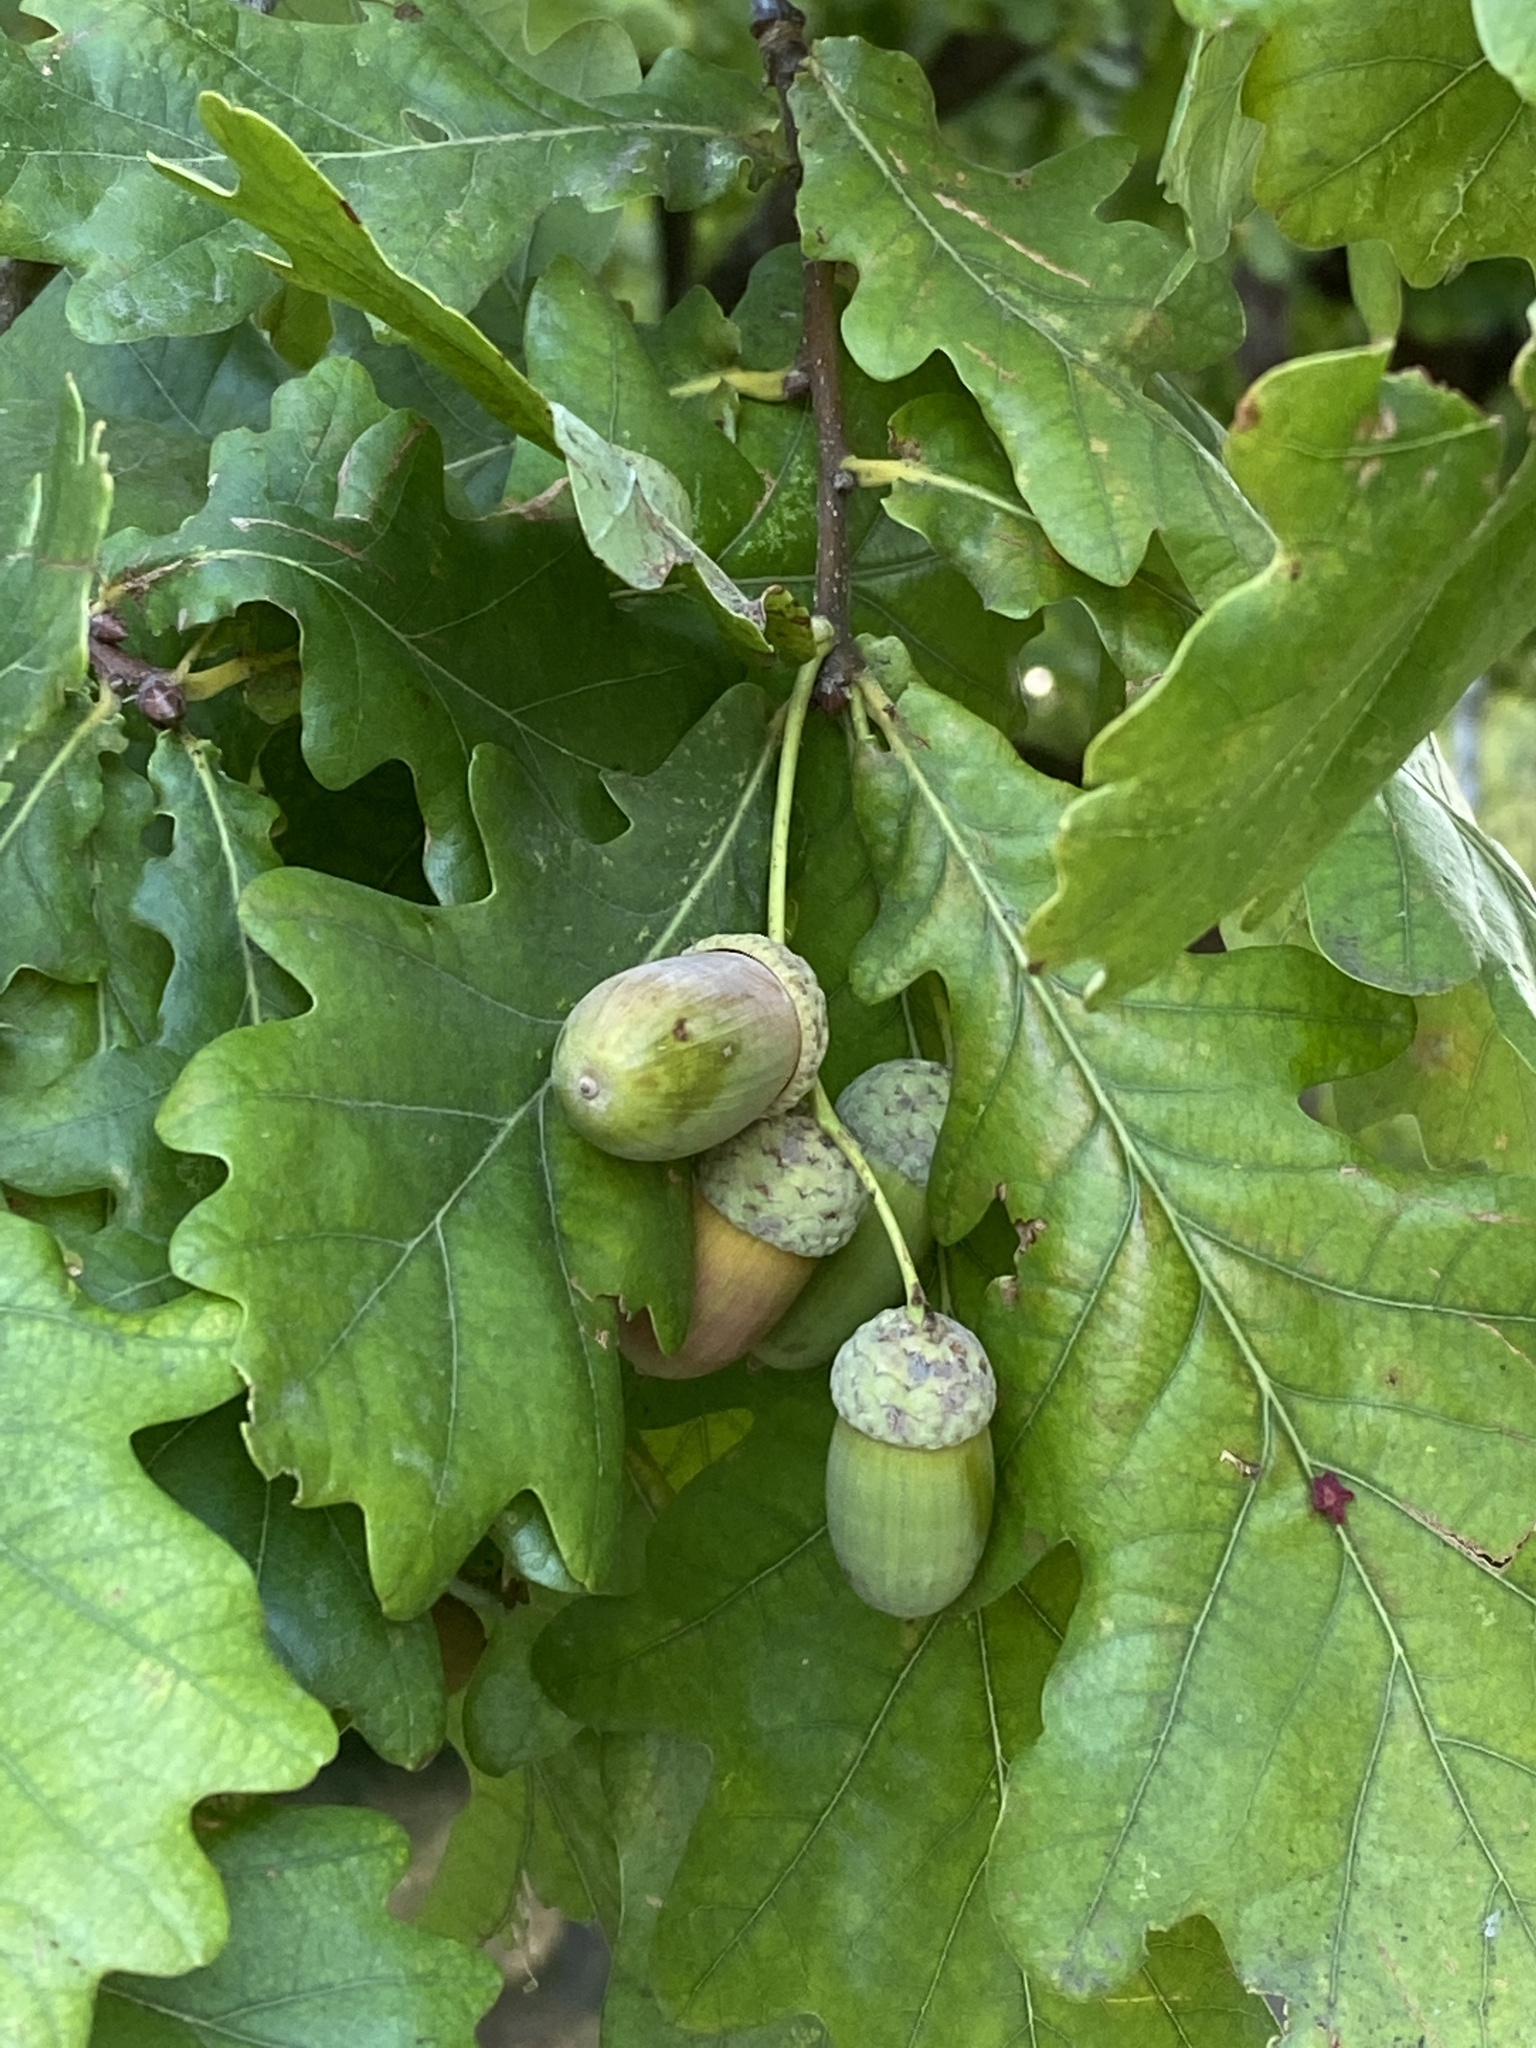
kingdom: Plantae
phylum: Tracheophyta
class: Magnoliopsida
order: Fagales
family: Fagaceae
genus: Quercus
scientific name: Quercus robur
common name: Pedunculate oak
